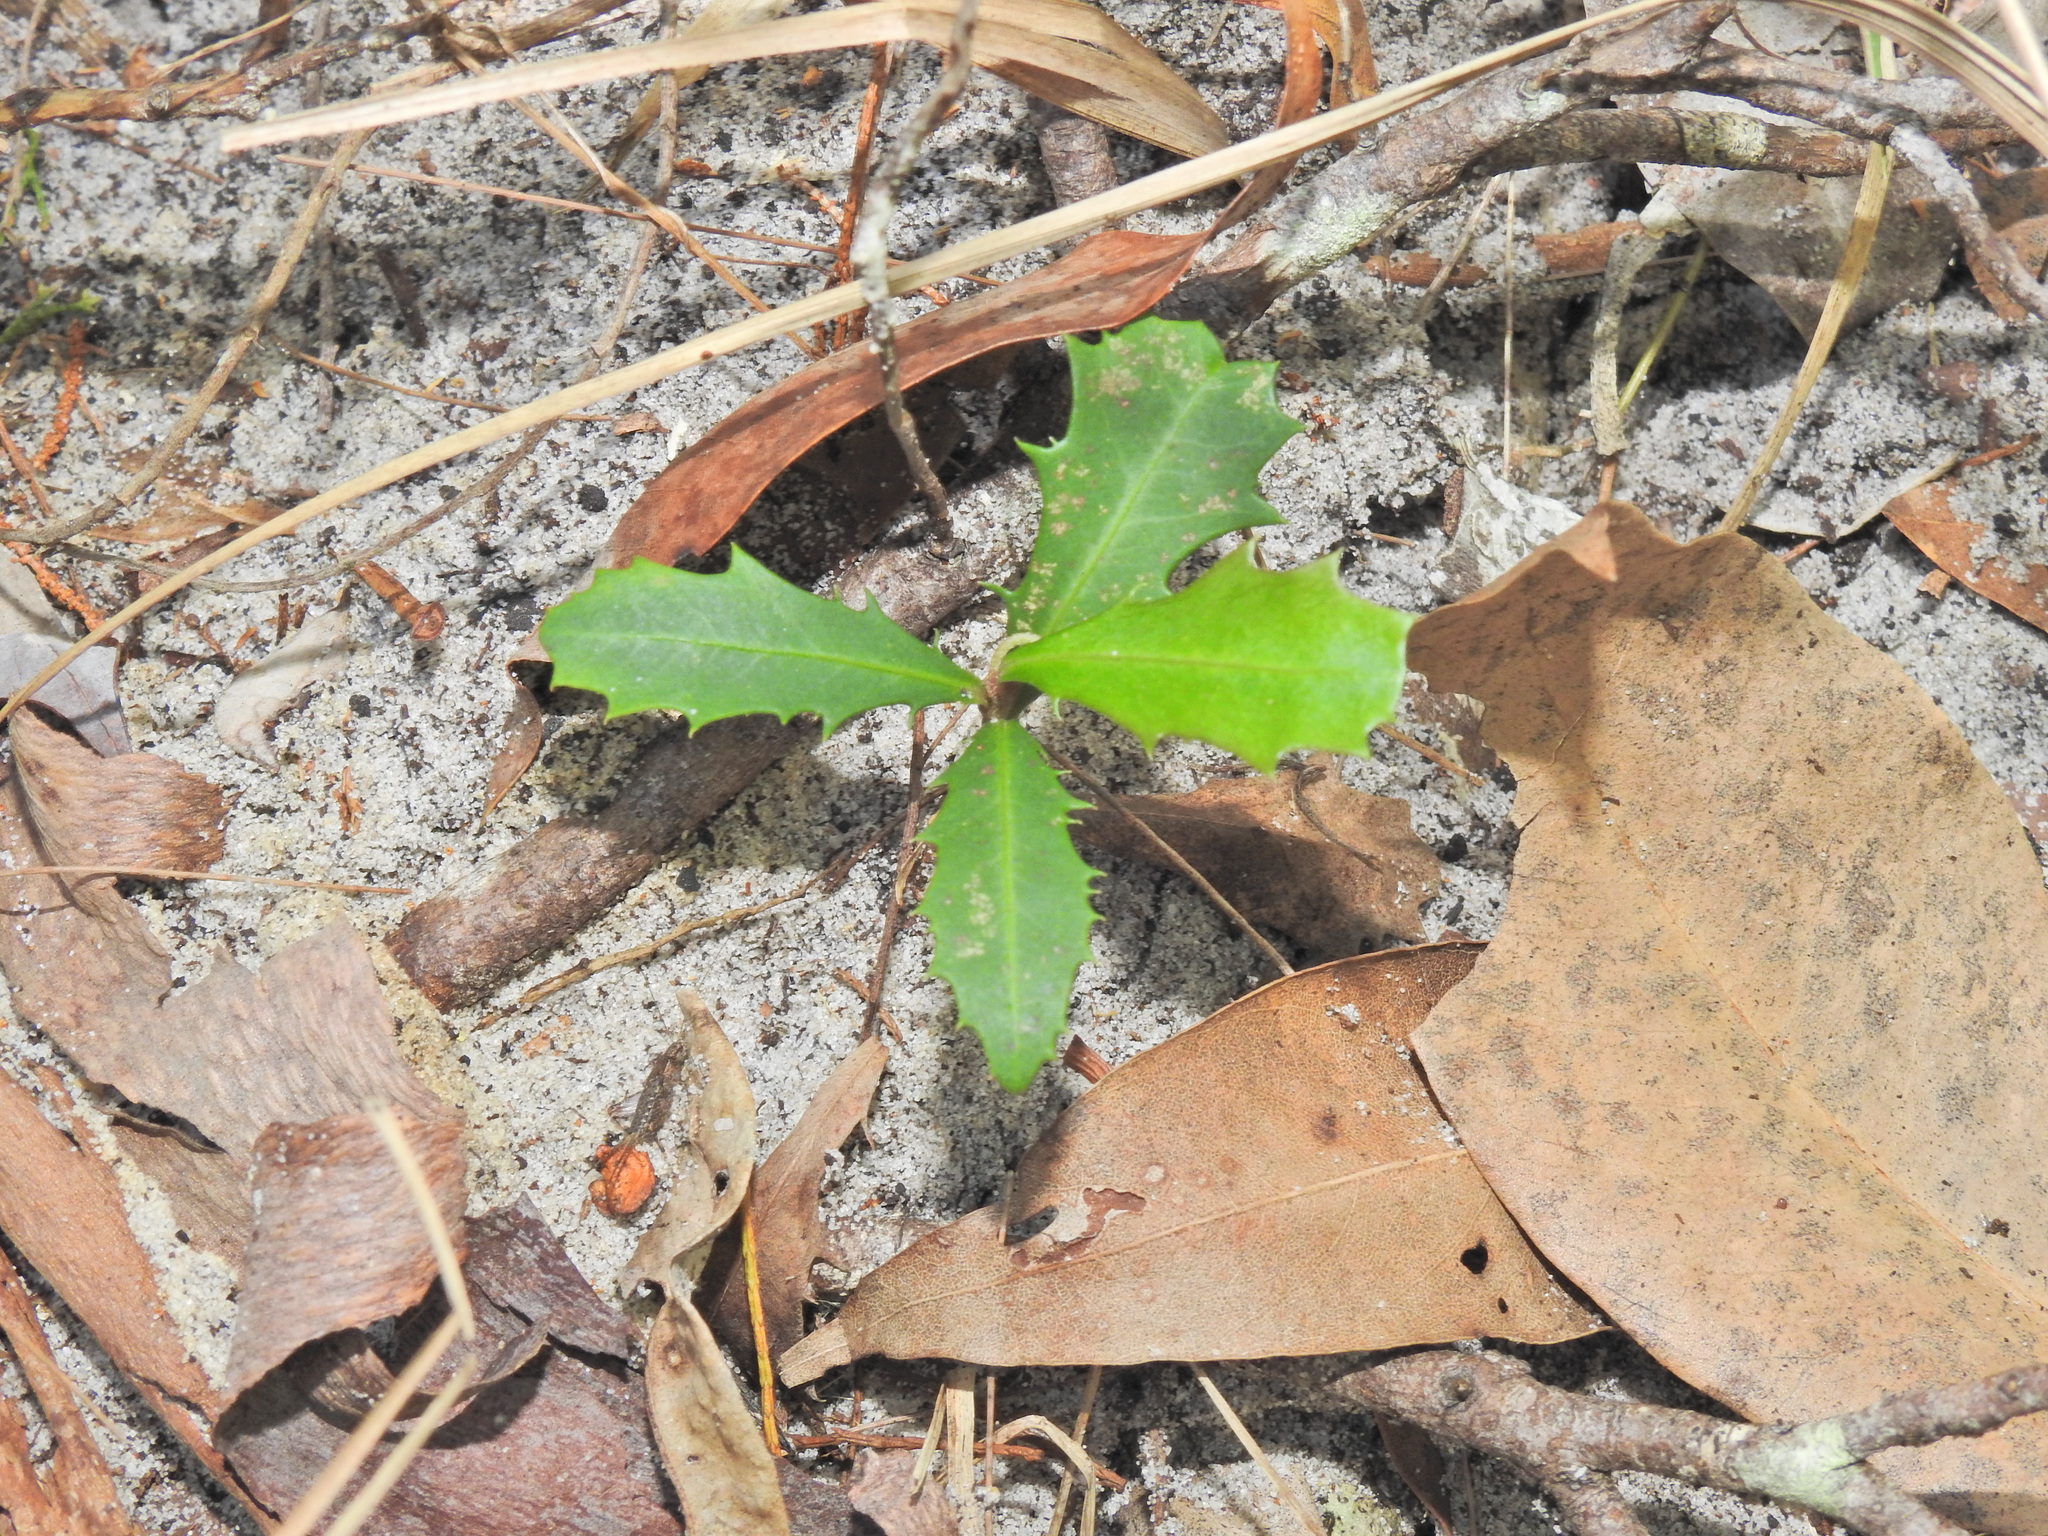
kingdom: Plantae
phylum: Tracheophyta
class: Magnoliopsida
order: Ericales
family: Primulaceae
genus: Myrsine
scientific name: Myrsine variabilis
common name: Brush muttonwood
